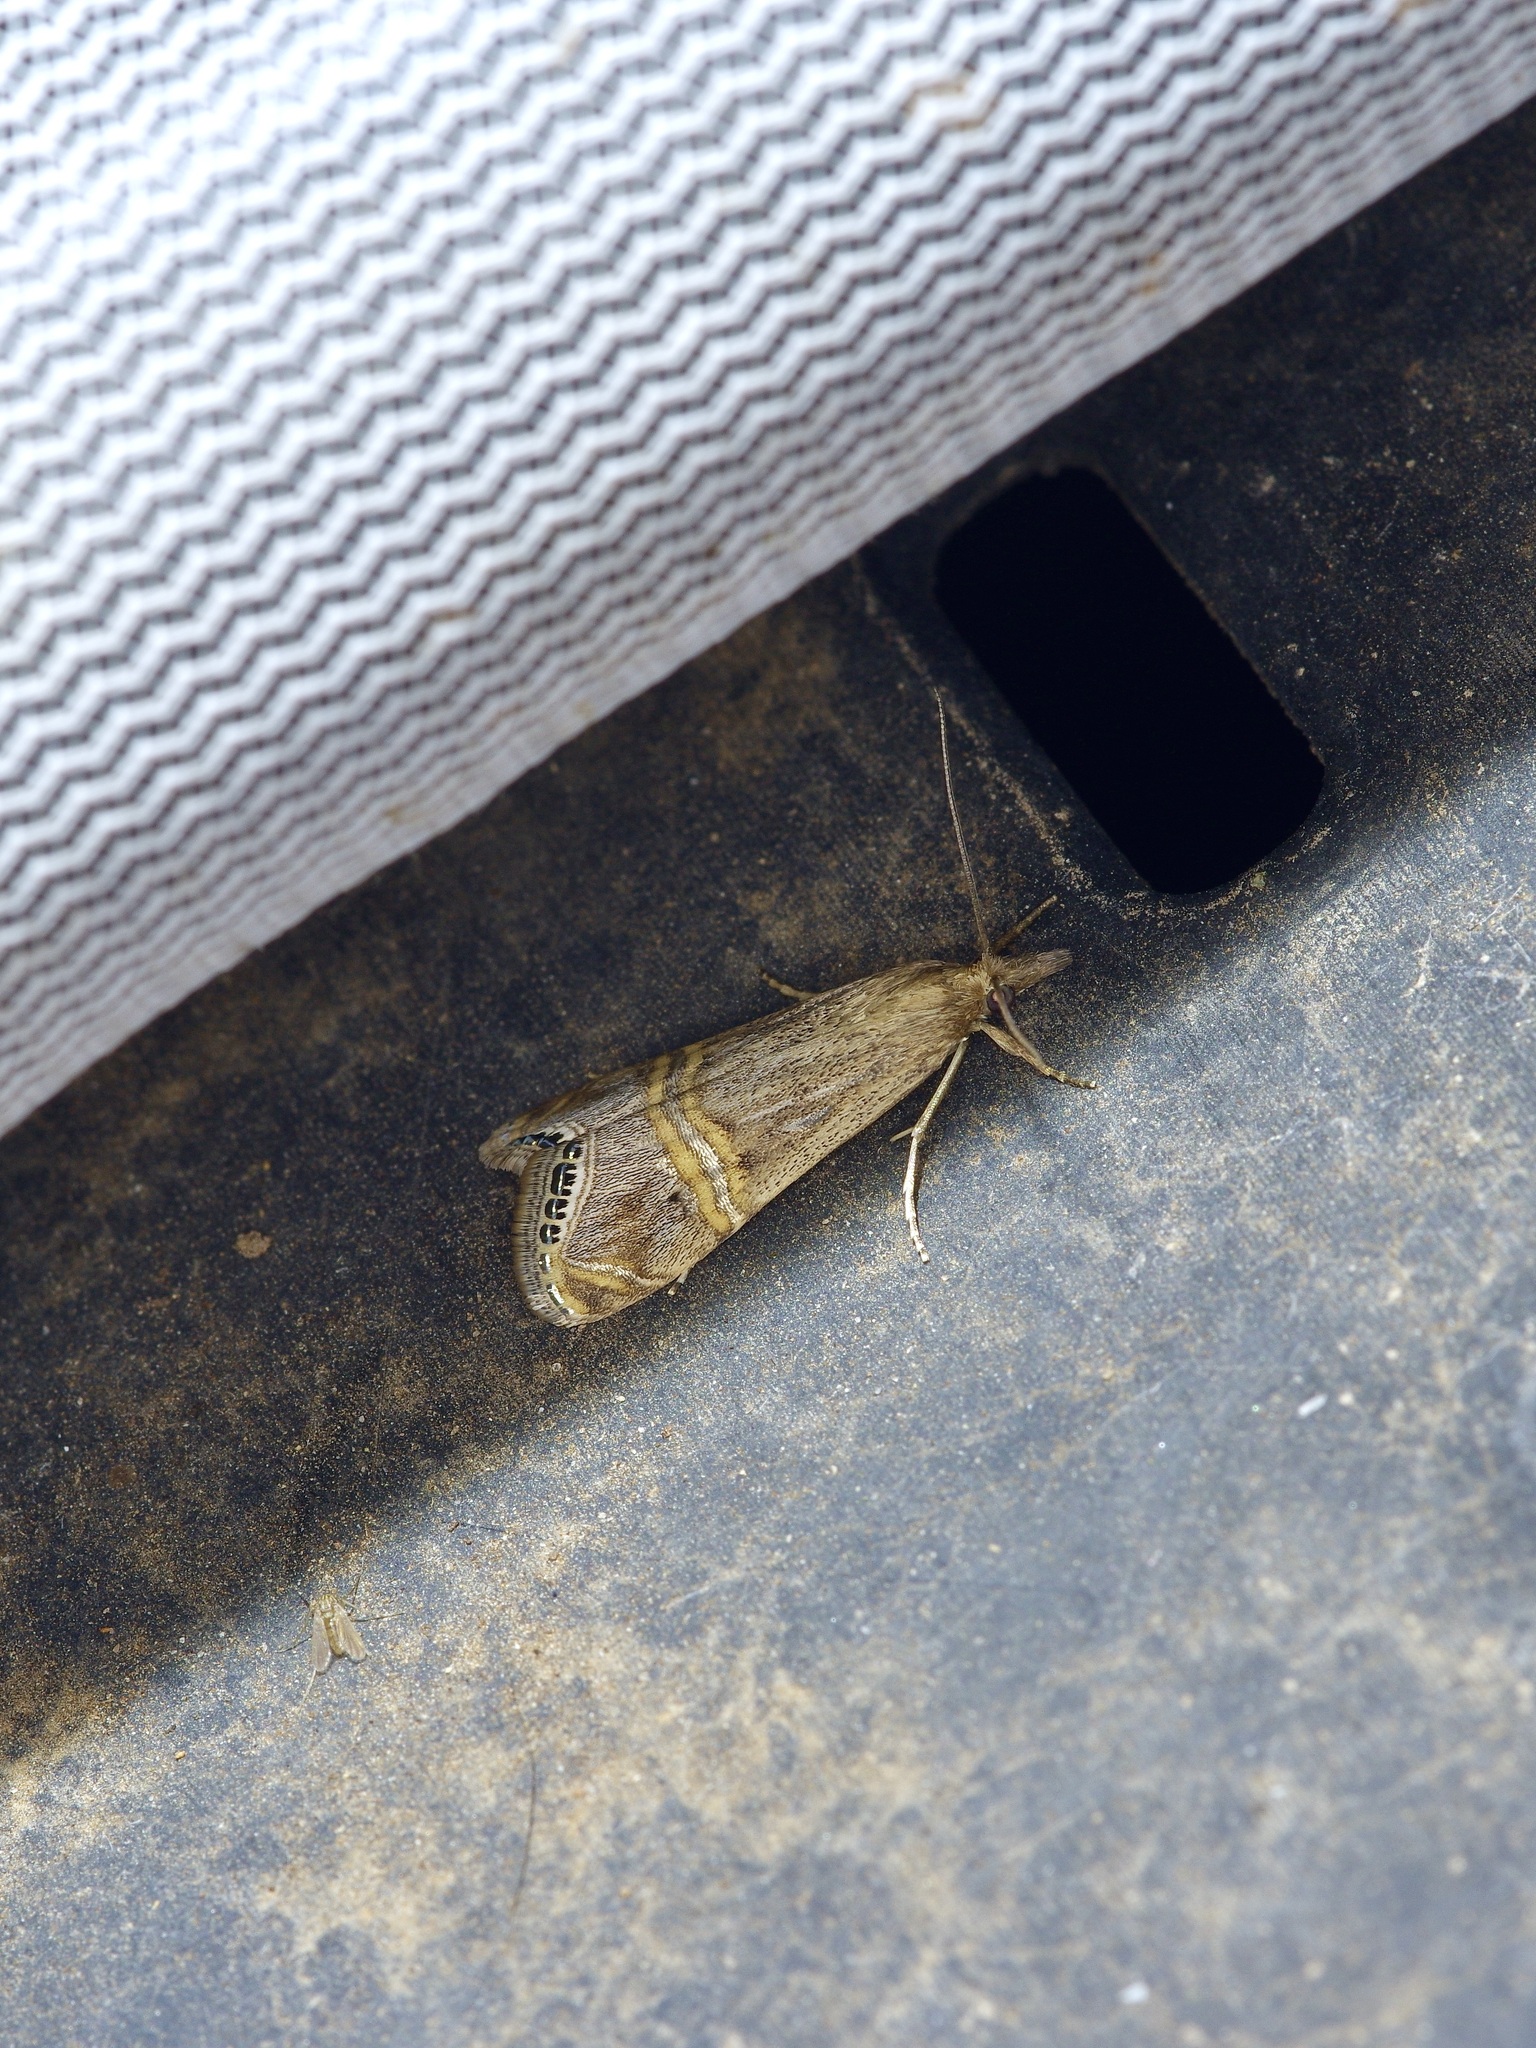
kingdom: Animalia
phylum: Arthropoda
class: Insecta
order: Lepidoptera
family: Crambidae
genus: Euchromius
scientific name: Euchromius ocellea
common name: Necklace veneer moth
